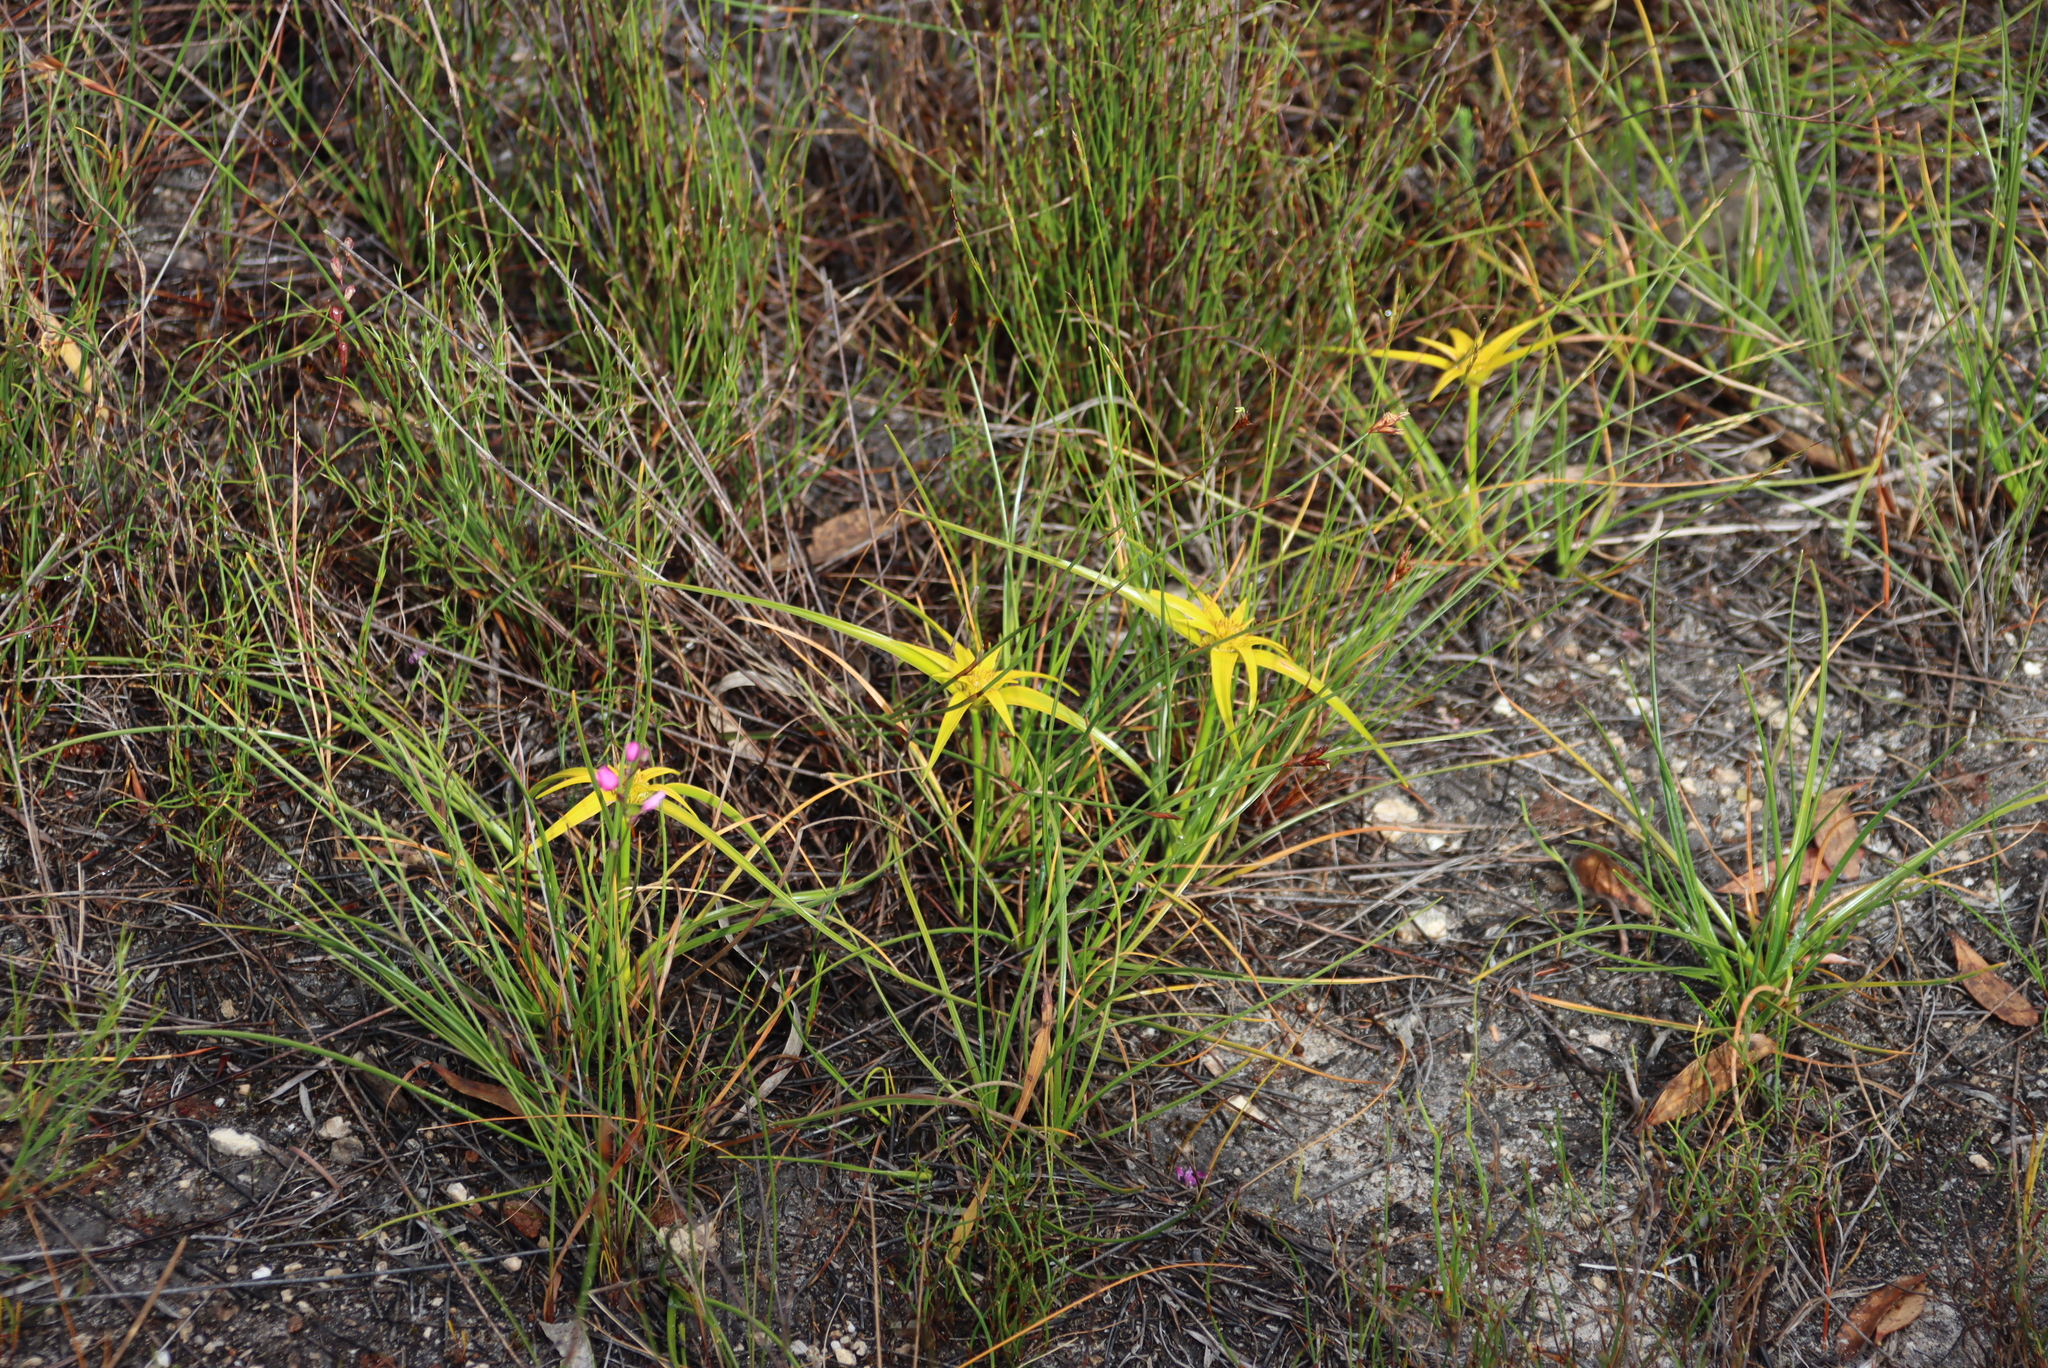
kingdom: Plantae
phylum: Tracheophyta
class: Liliopsida
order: Poales
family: Cyperaceae
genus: Ficinia
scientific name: Ficinia radiata
